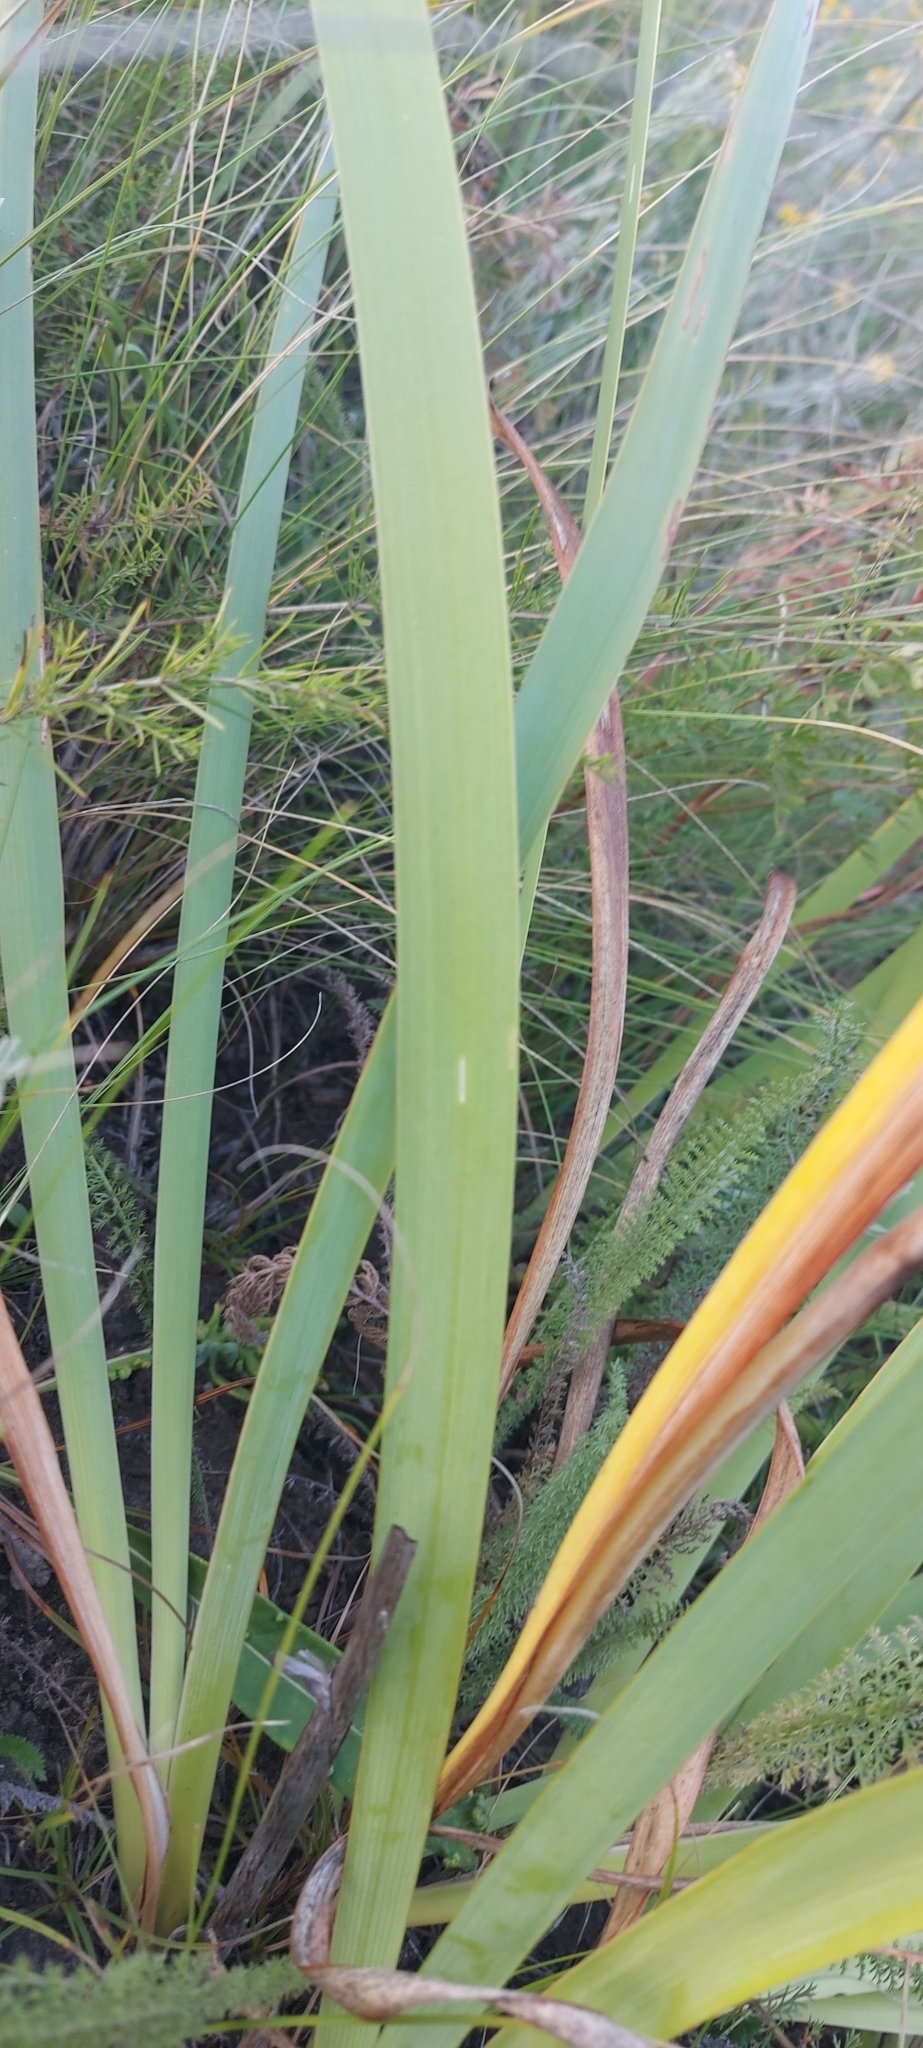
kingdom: Plantae
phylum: Tracheophyta
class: Liliopsida
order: Asparagales
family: Iridaceae
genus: Iris
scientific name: Iris halophila
